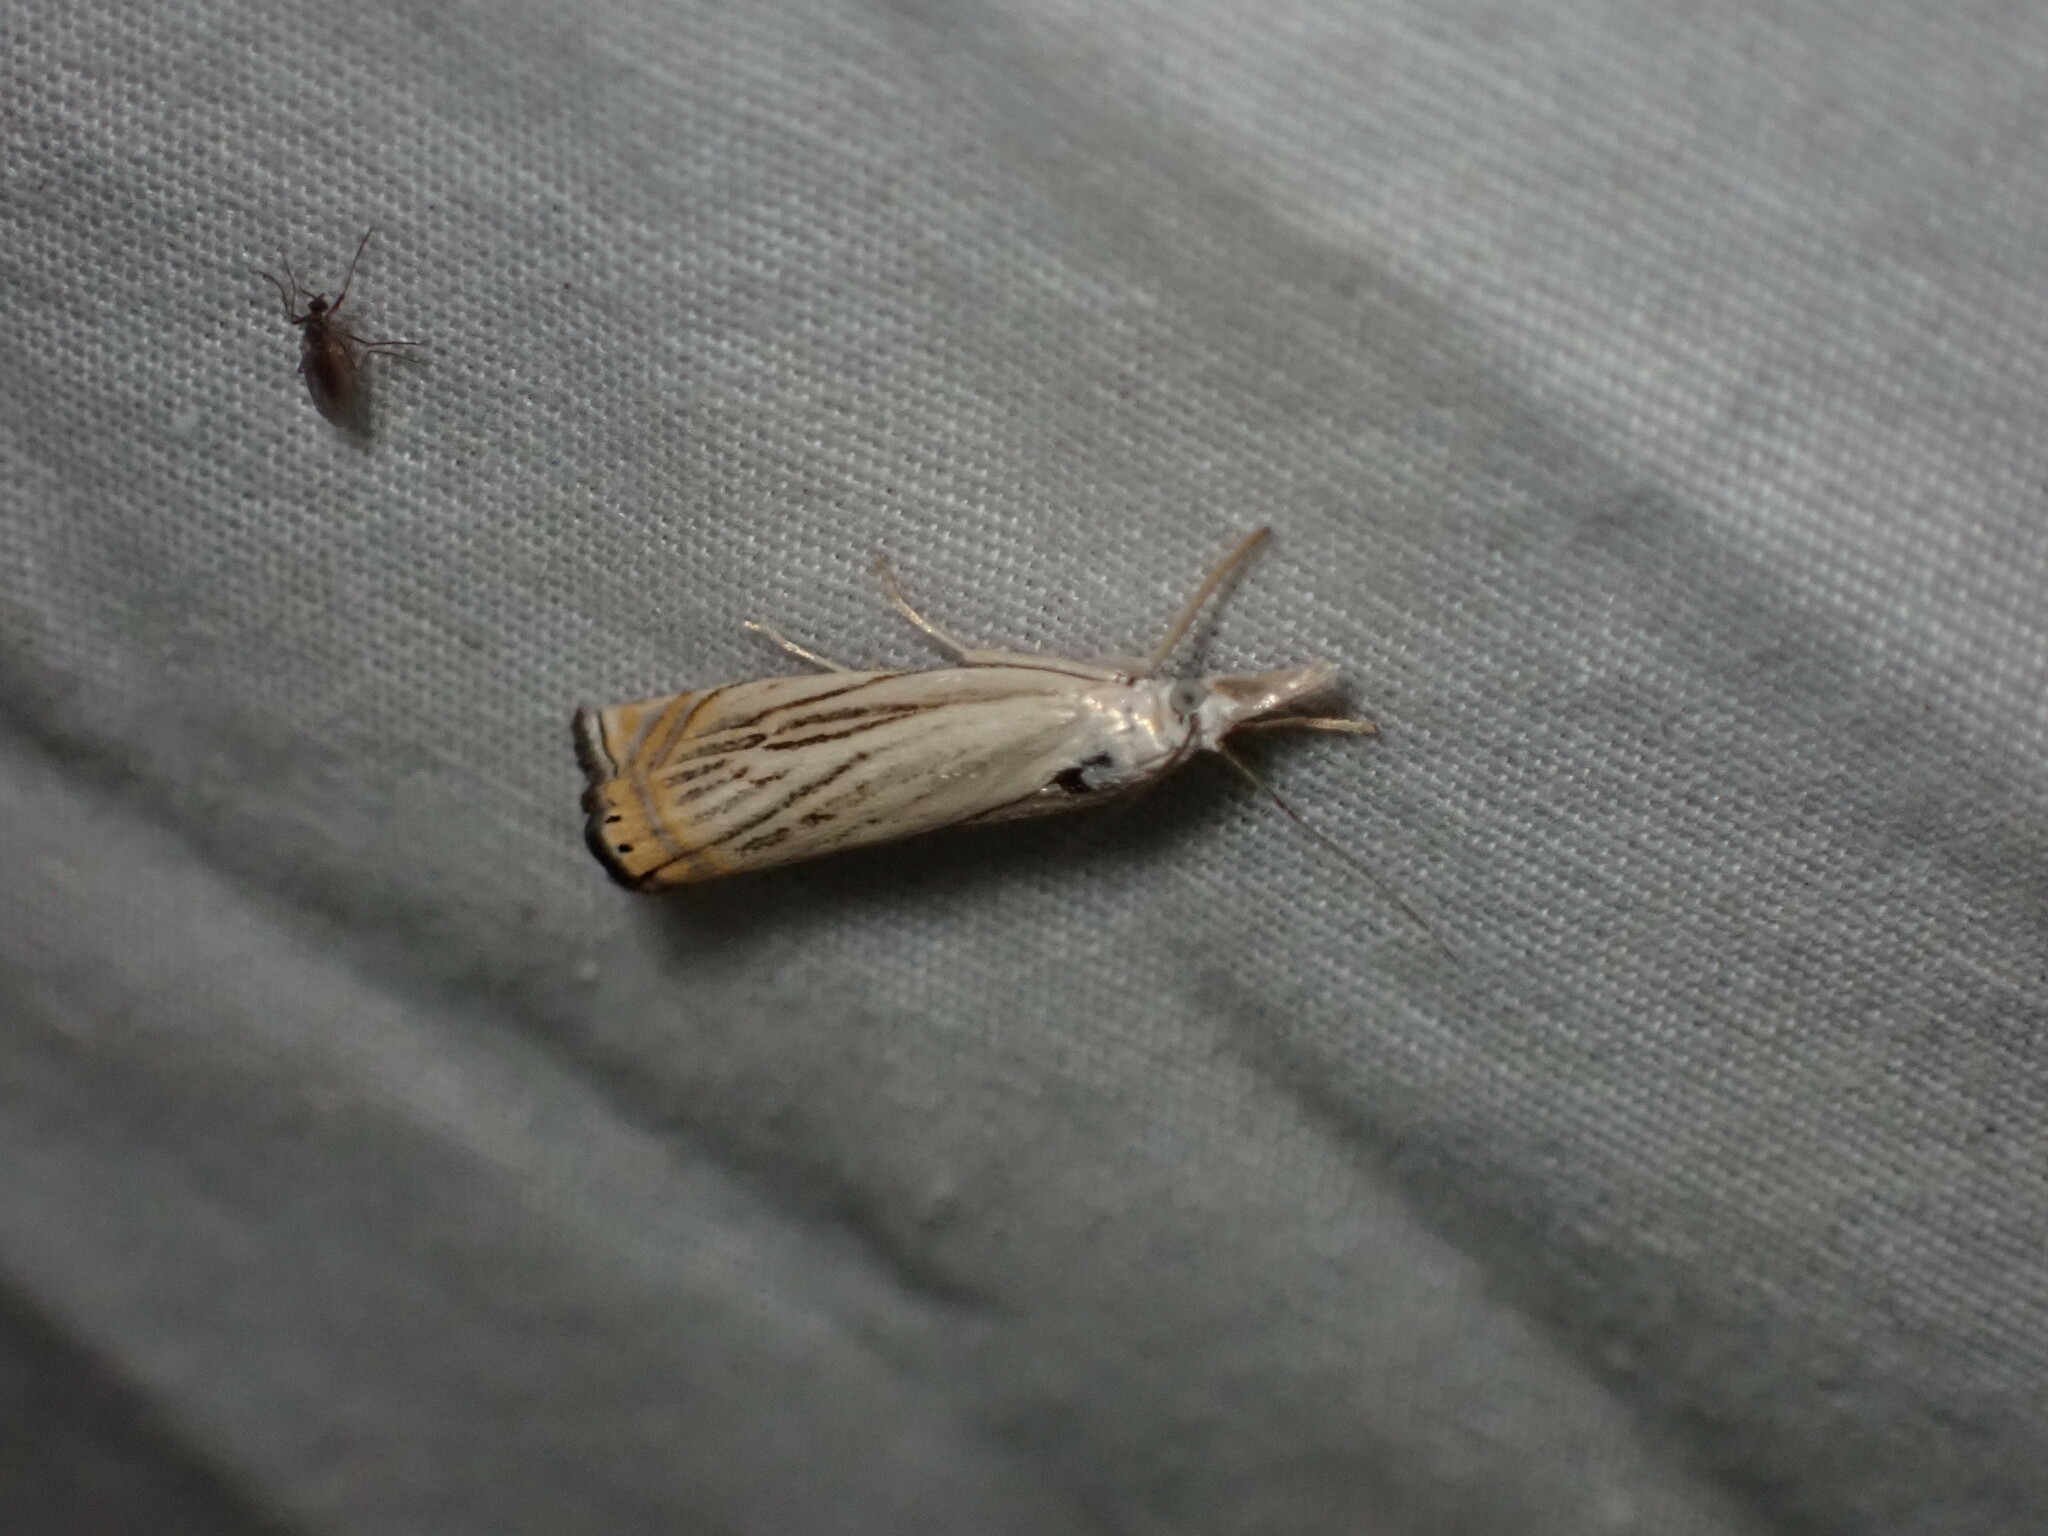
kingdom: Animalia
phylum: Arthropoda
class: Insecta
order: Lepidoptera
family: Crambidae
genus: Chrysoteuchia
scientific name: Chrysoteuchia topiarius
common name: Topiary grass-veneer
